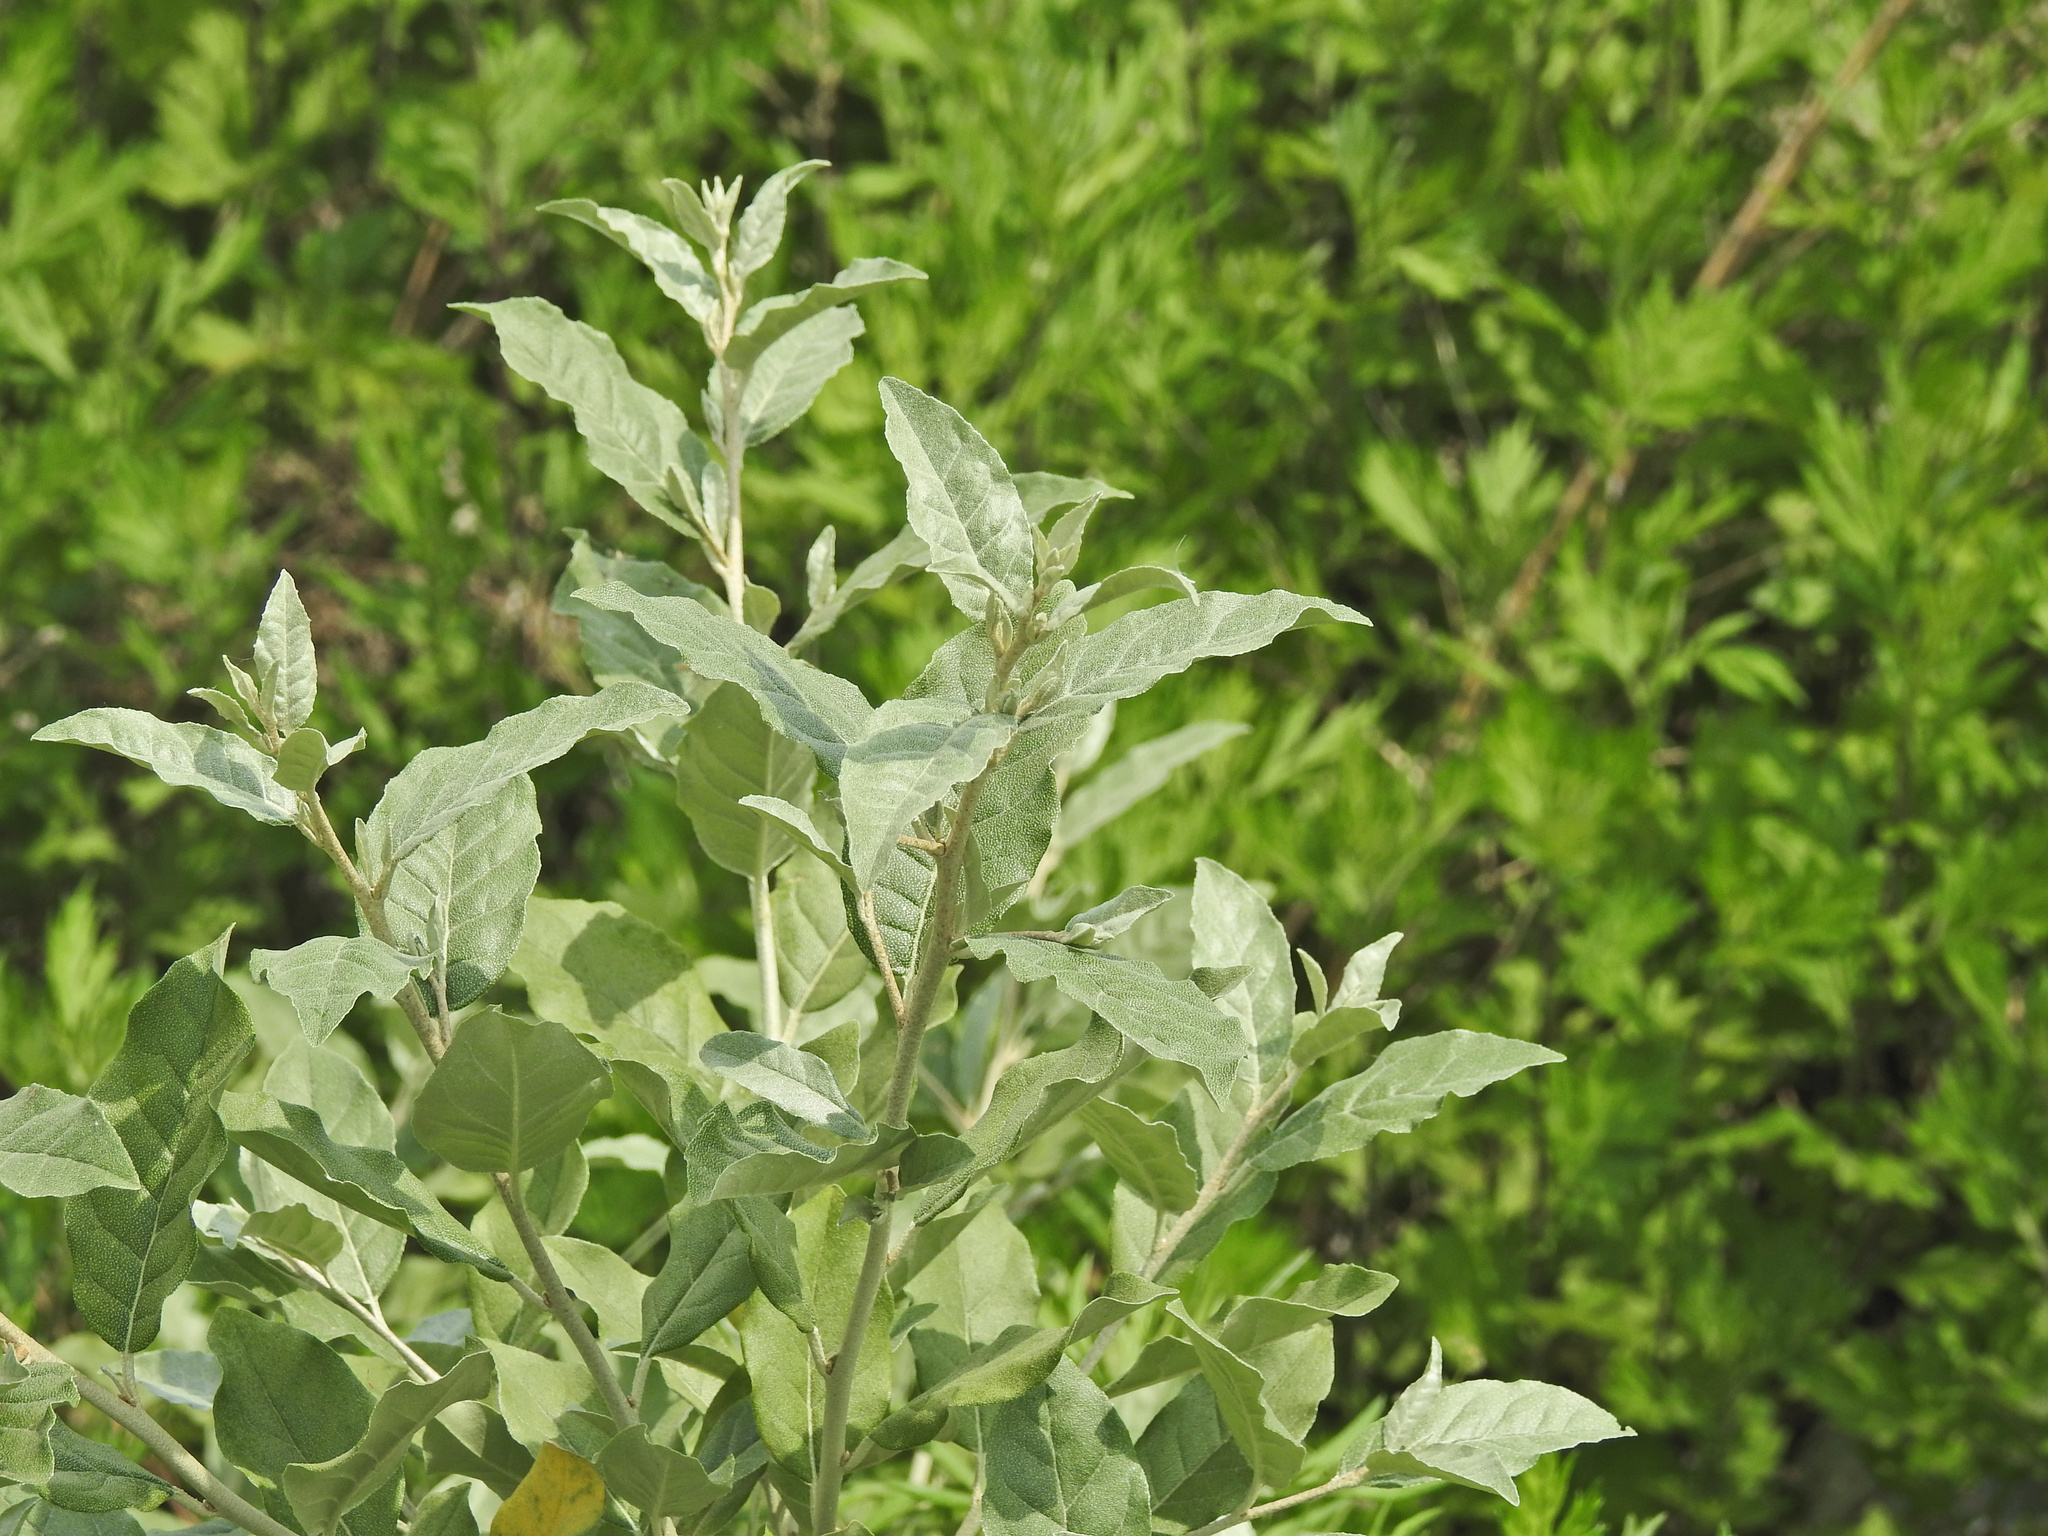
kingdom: Plantae
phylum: Tracheophyta
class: Magnoliopsida
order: Rosales
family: Elaeagnaceae
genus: Elaeagnus
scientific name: Elaeagnus umbellata
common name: Autumn olive
